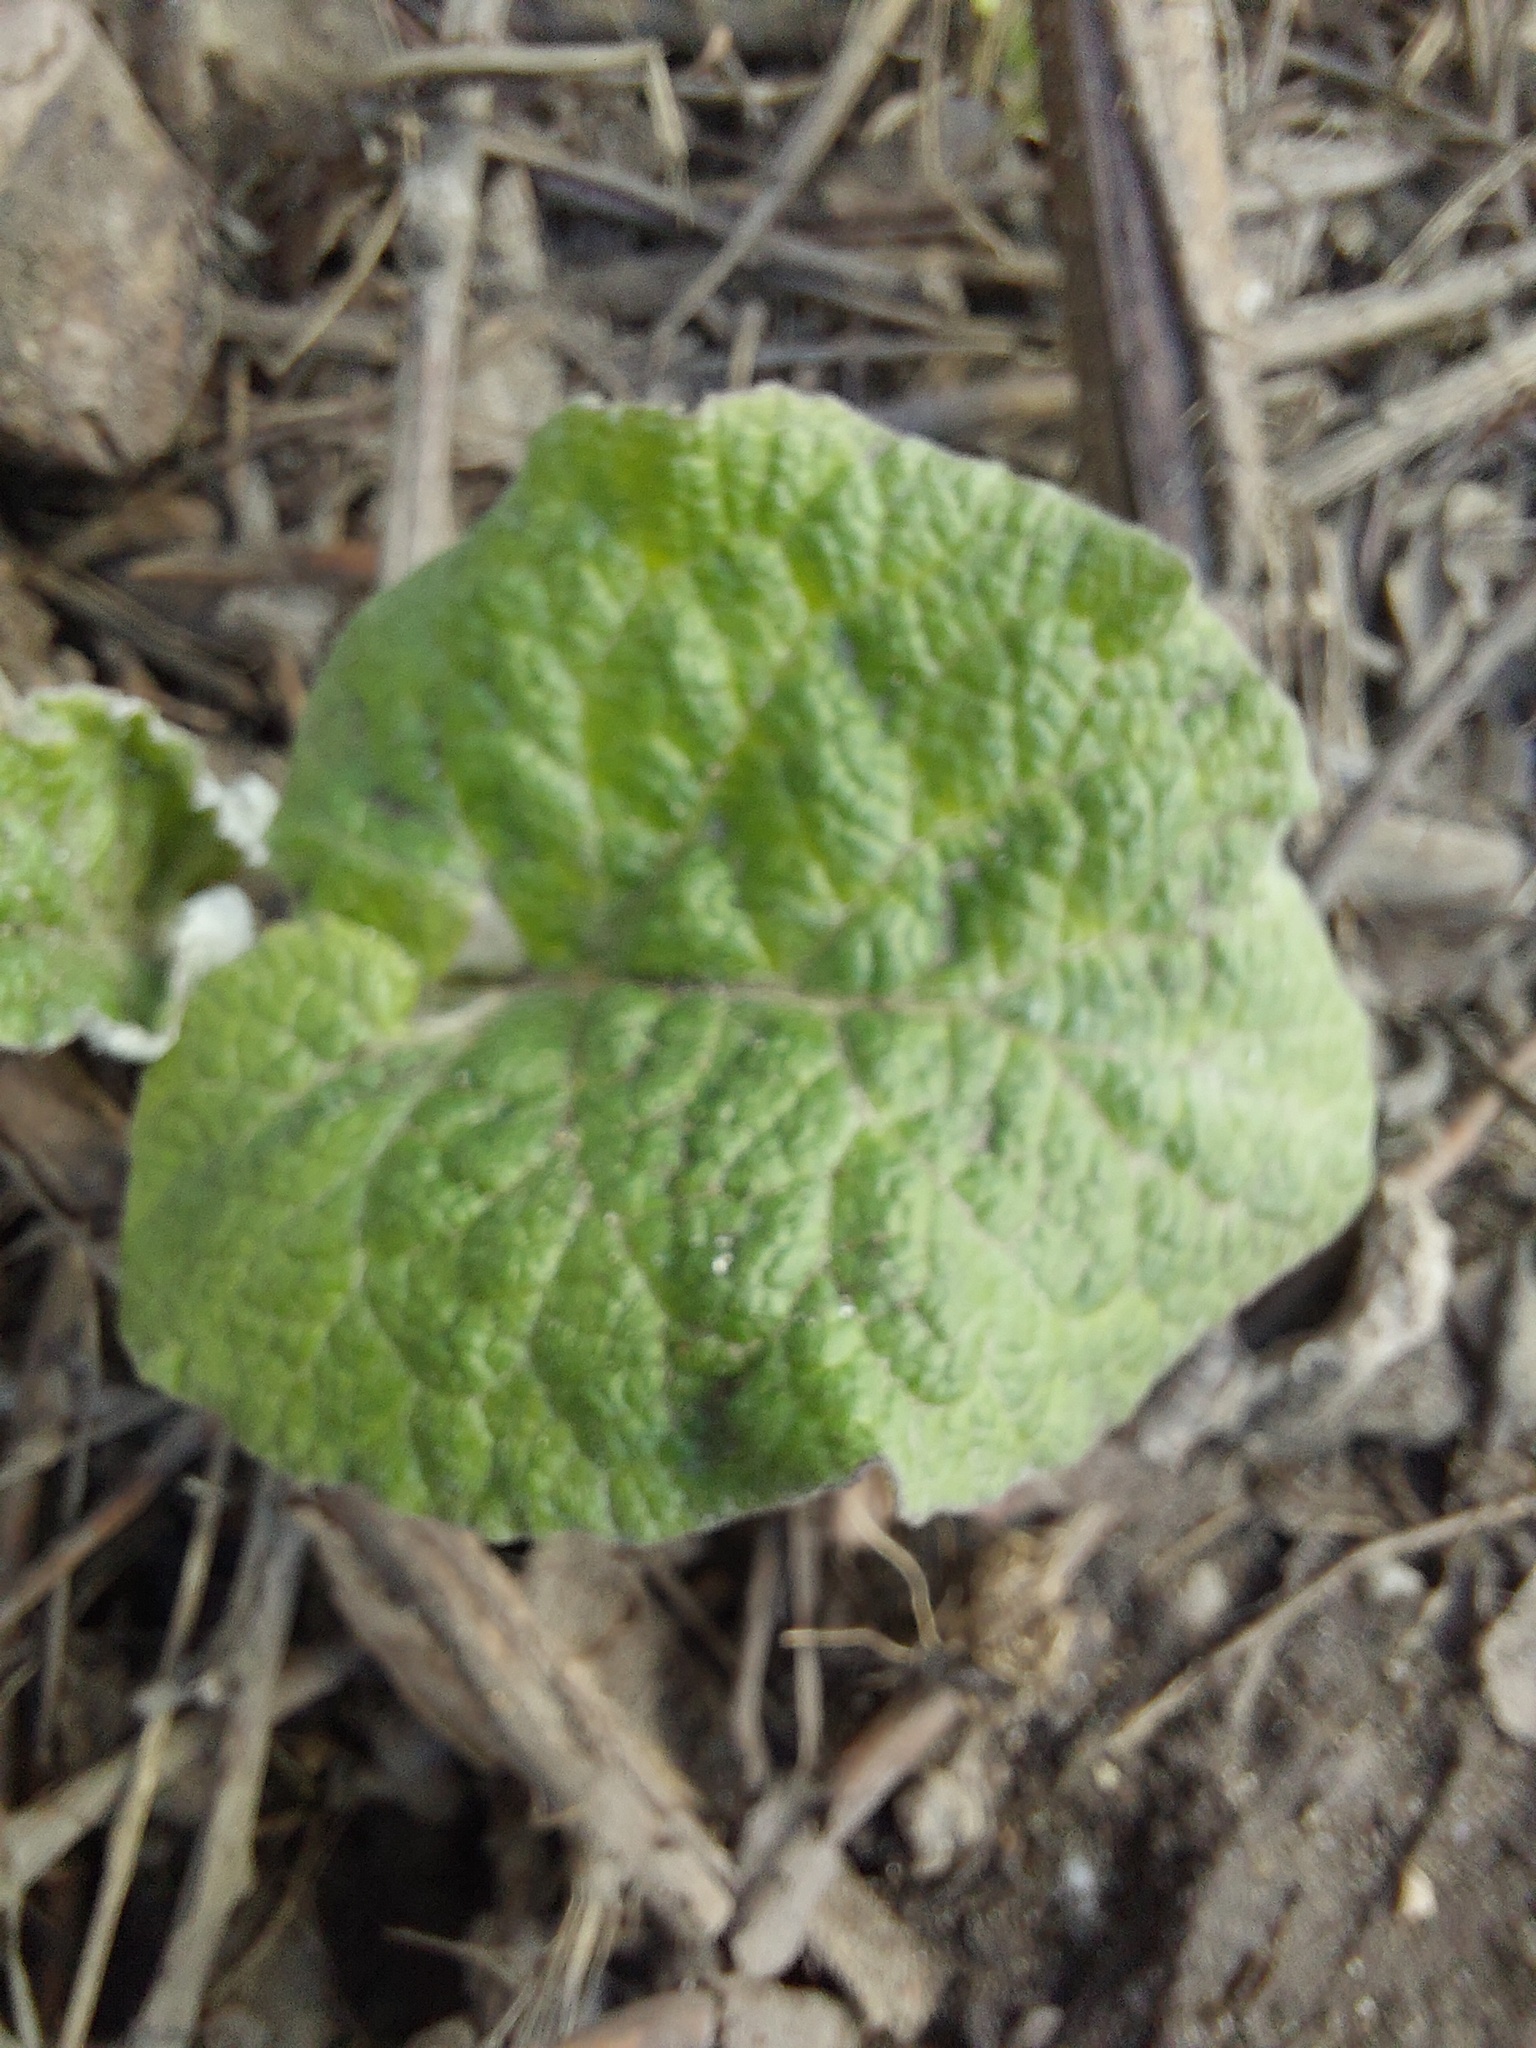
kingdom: Plantae
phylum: Tracheophyta
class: Magnoliopsida
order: Asterales
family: Asteraceae
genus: Arctium
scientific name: Arctium
